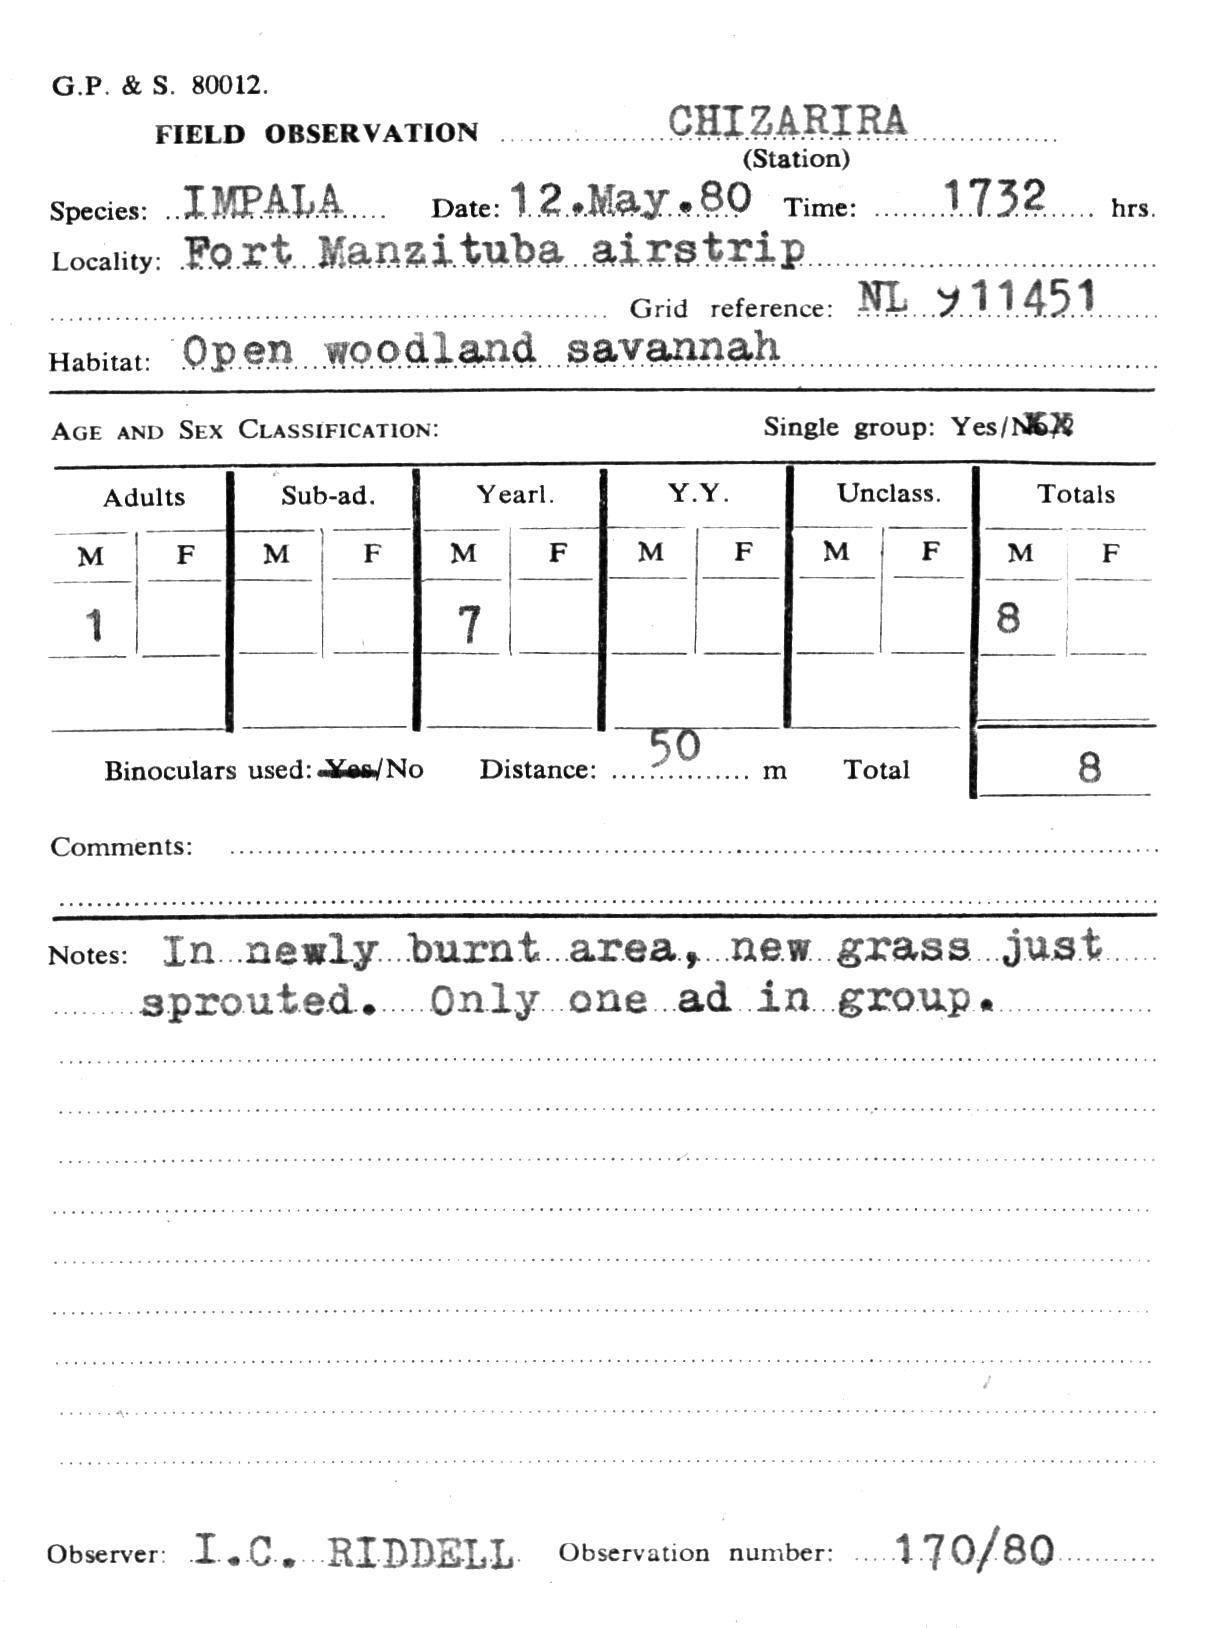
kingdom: Animalia
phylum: Chordata
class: Mammalia
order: Artiodactyla
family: Bovidae
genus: Aepyceros
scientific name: Aepyceros melampus
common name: Impala
